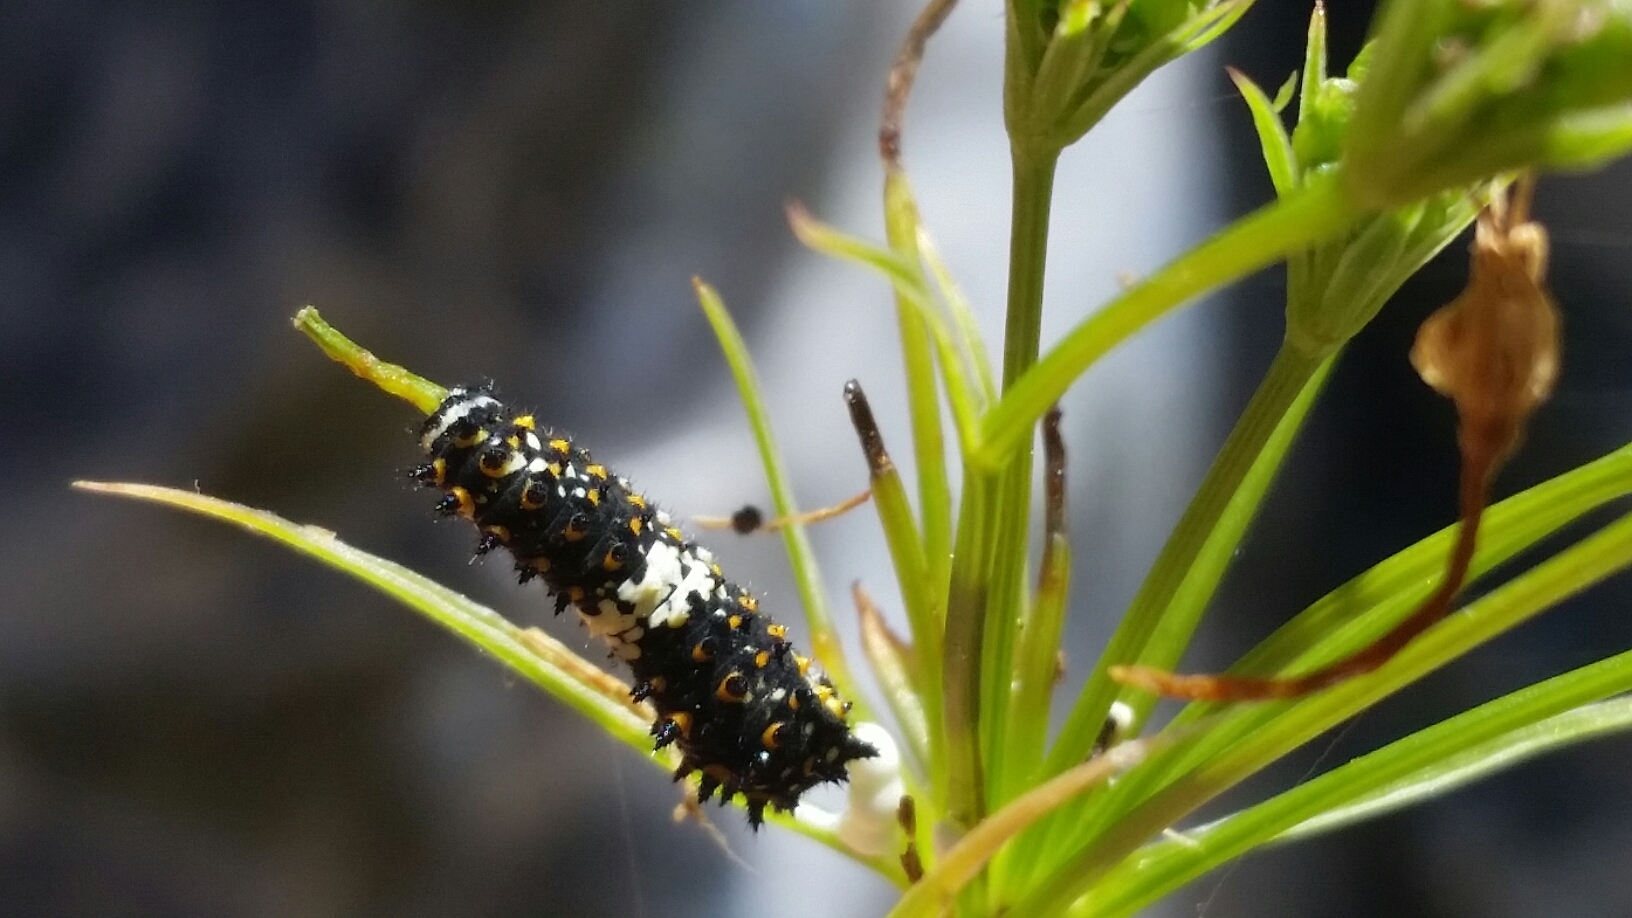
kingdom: Animalia
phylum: Arthropoda
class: Insecta
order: Lepidoptera
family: Papilionidae
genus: Papilio
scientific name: Papilio zelicaon
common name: Anise swallowtail
